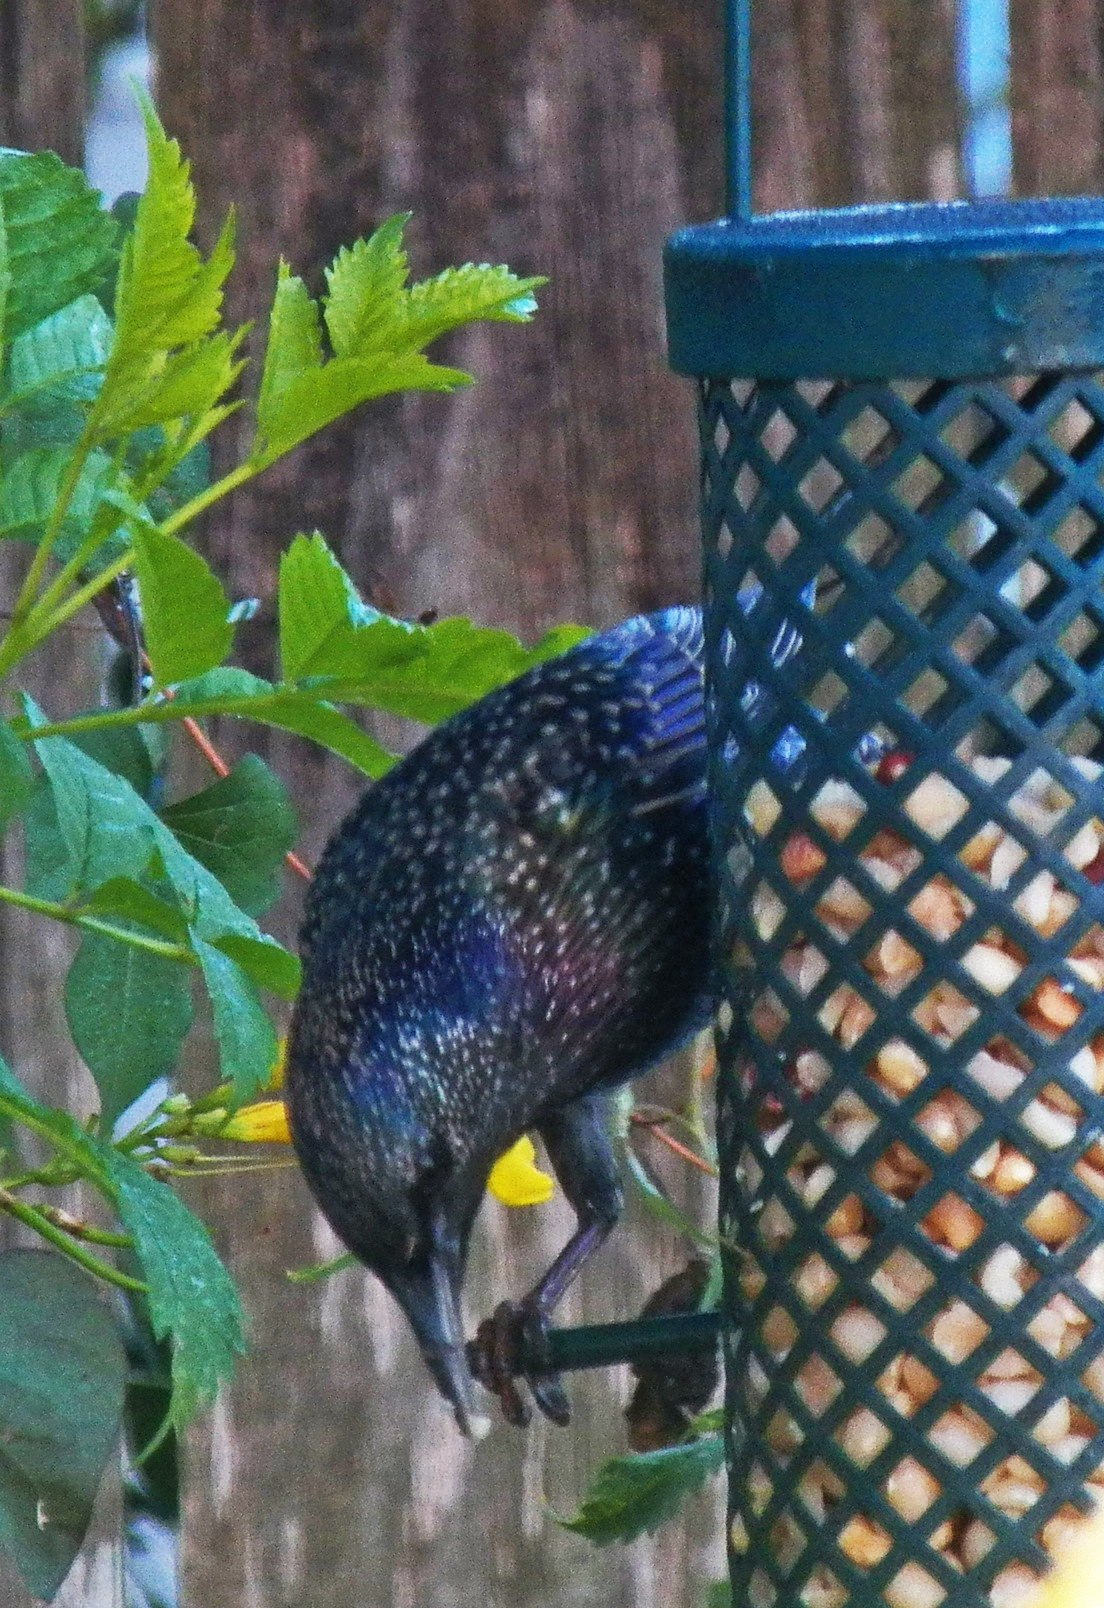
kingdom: Animalia
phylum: Chordata
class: Aves
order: Passeriformes
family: Sturnidae
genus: Sturnus
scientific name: Sturnus vulgaris
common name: Common starling
